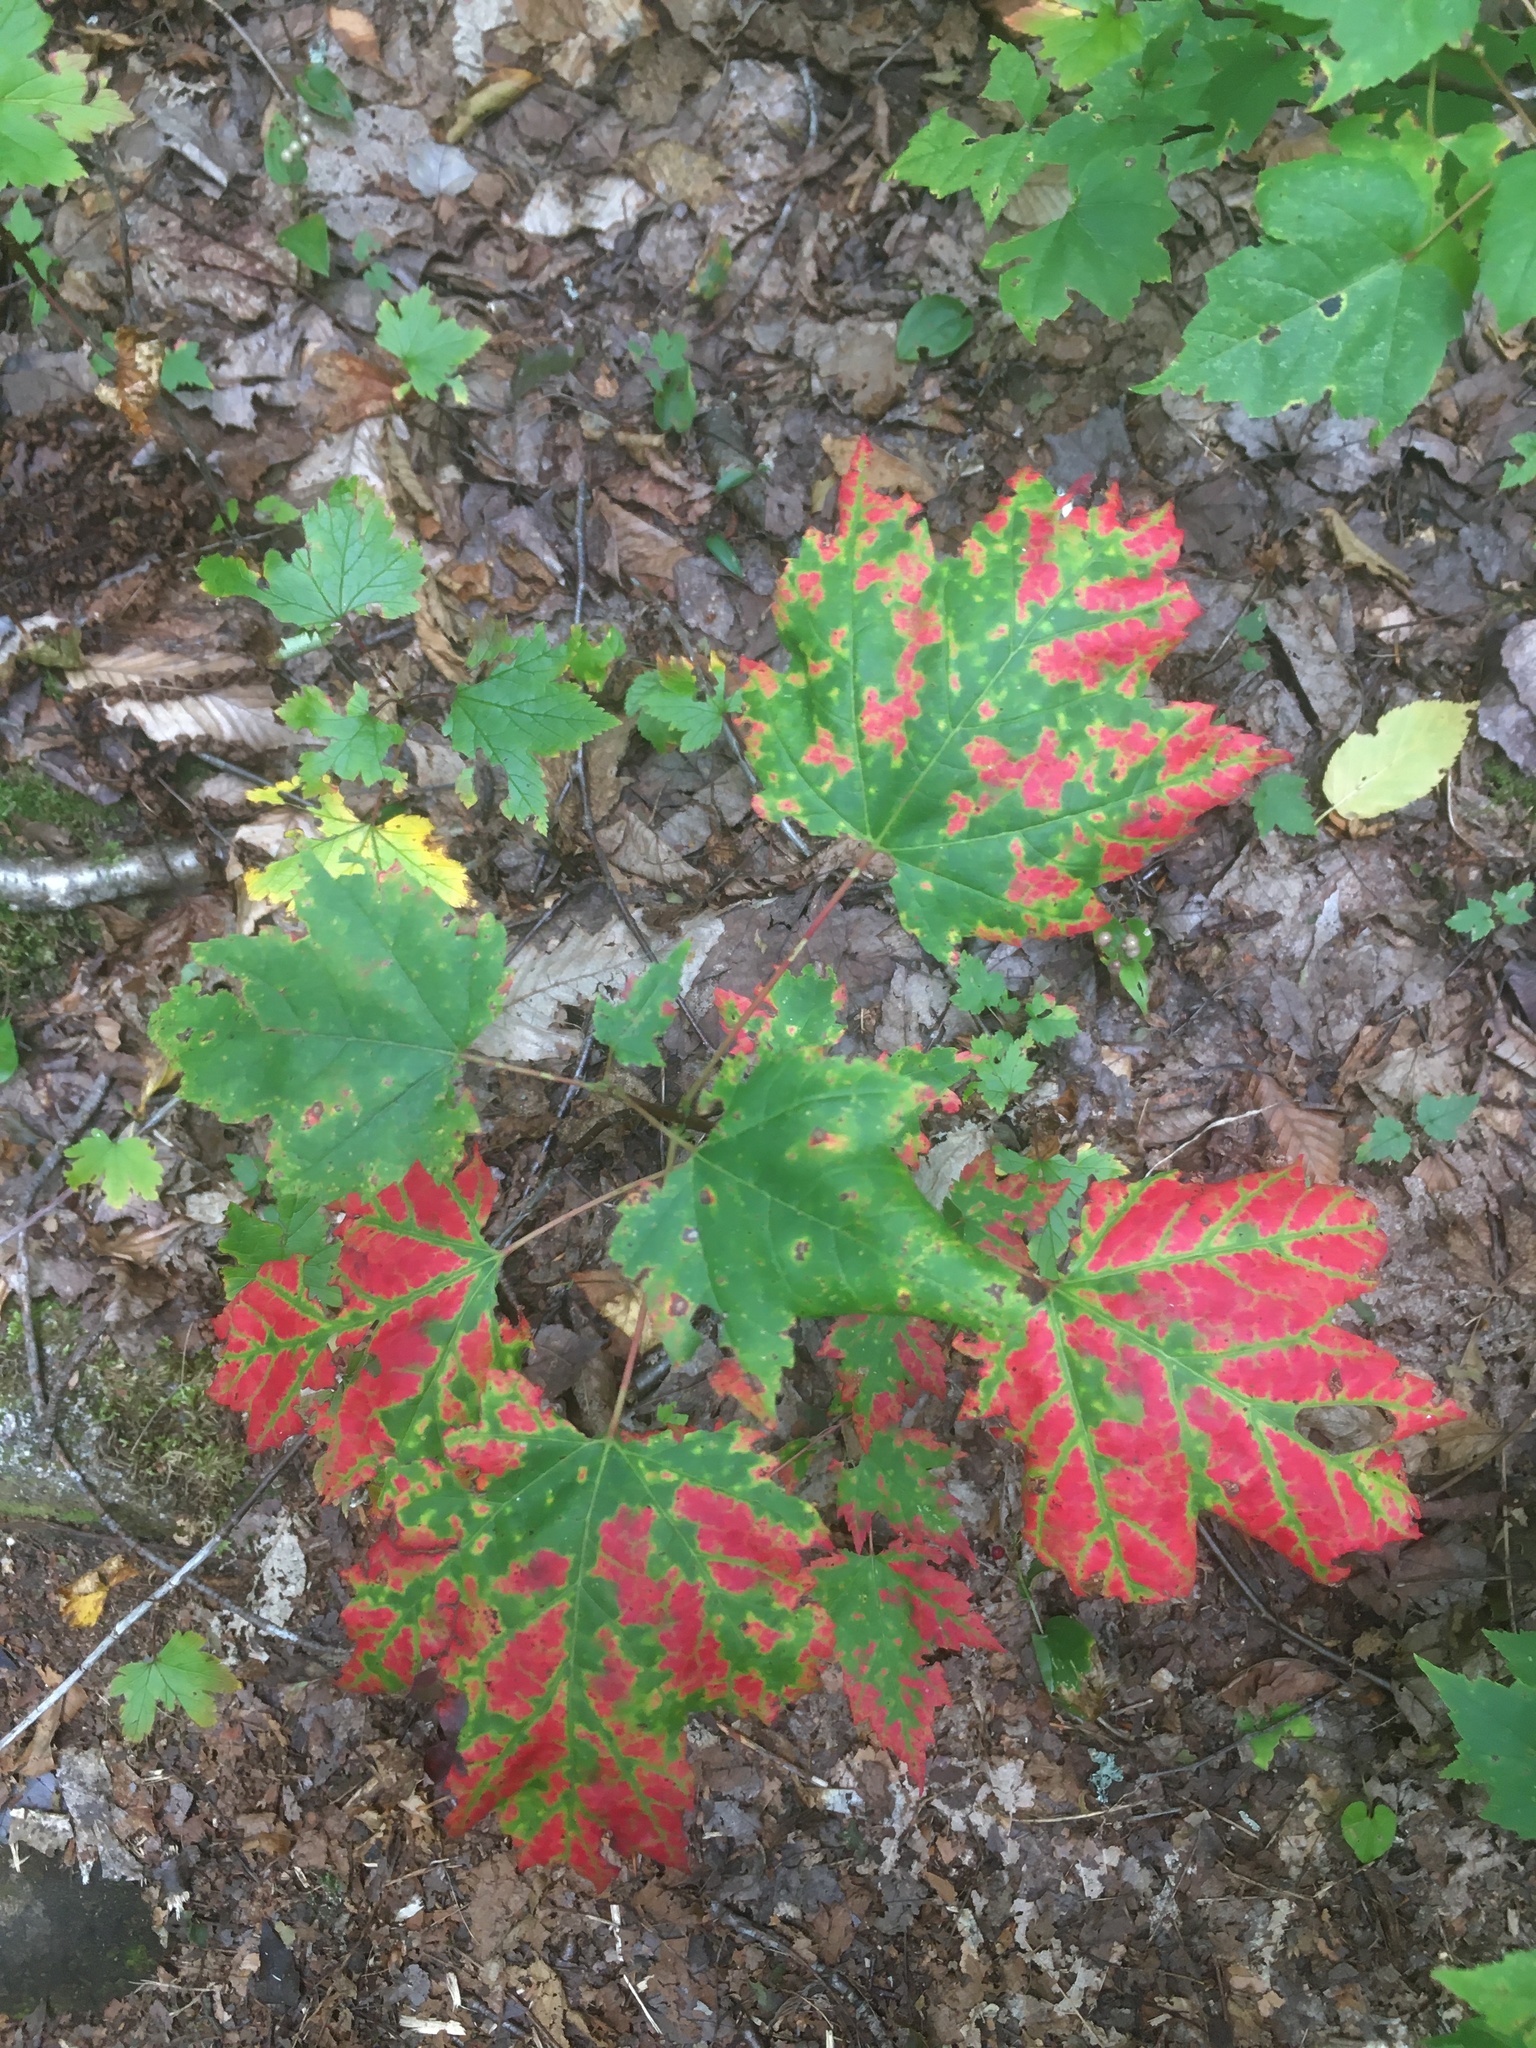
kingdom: Plantae
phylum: Tracheophyta
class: Magnoliopsida
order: Sapindales
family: Sapindaceae
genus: Acer
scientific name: Acer rubrum
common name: Red maple
